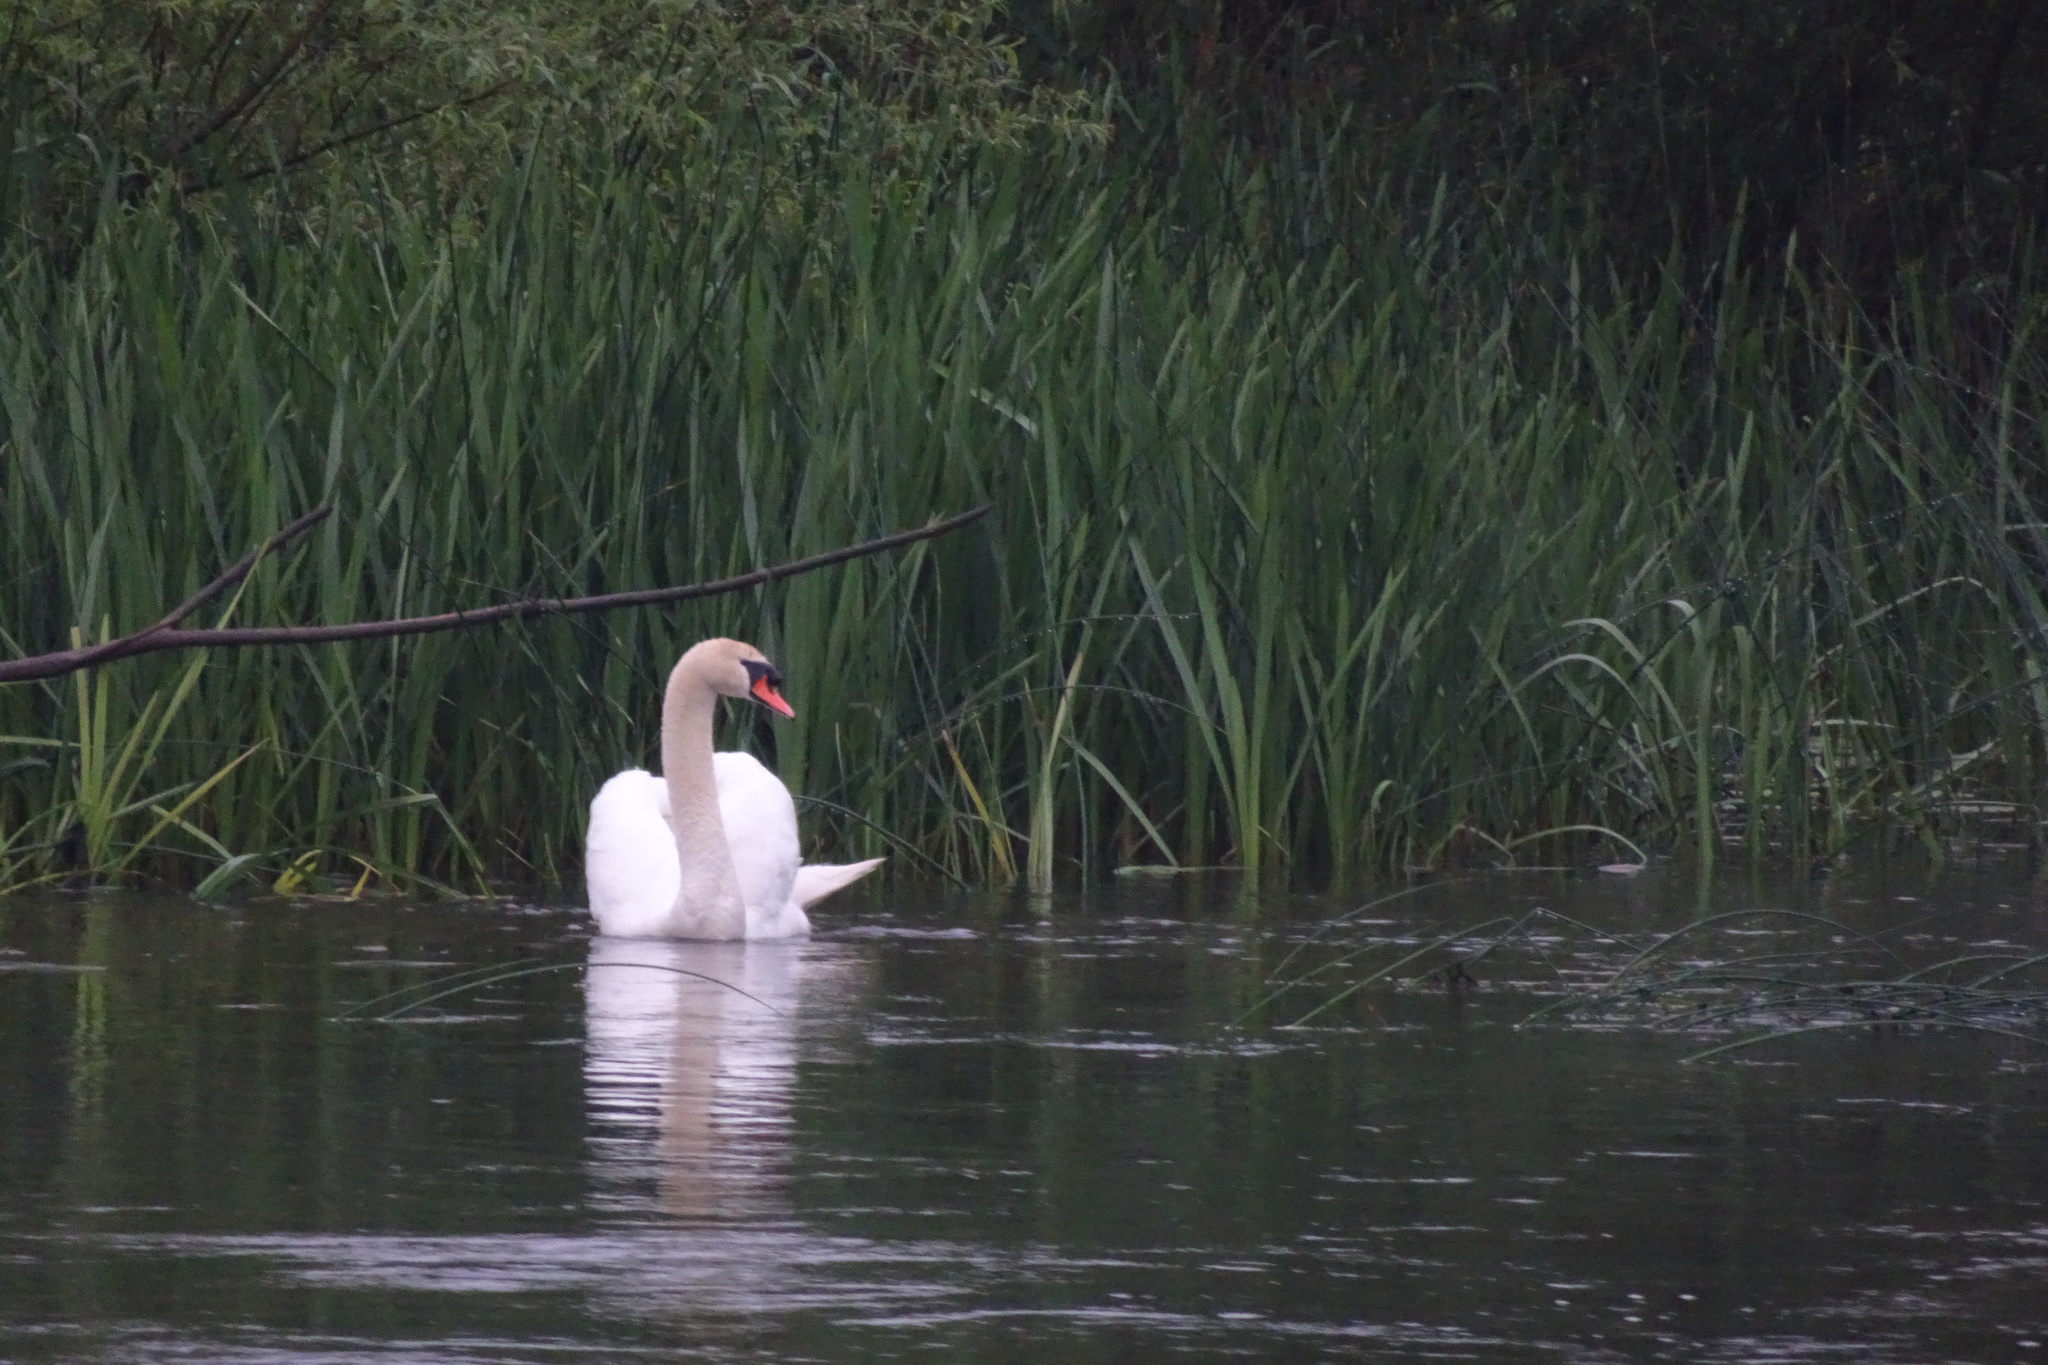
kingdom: Animalia
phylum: Chordata
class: Aves
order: Anseriformes
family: Anatidae
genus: Cygnus
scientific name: Cygnus olor
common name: Mute swan
